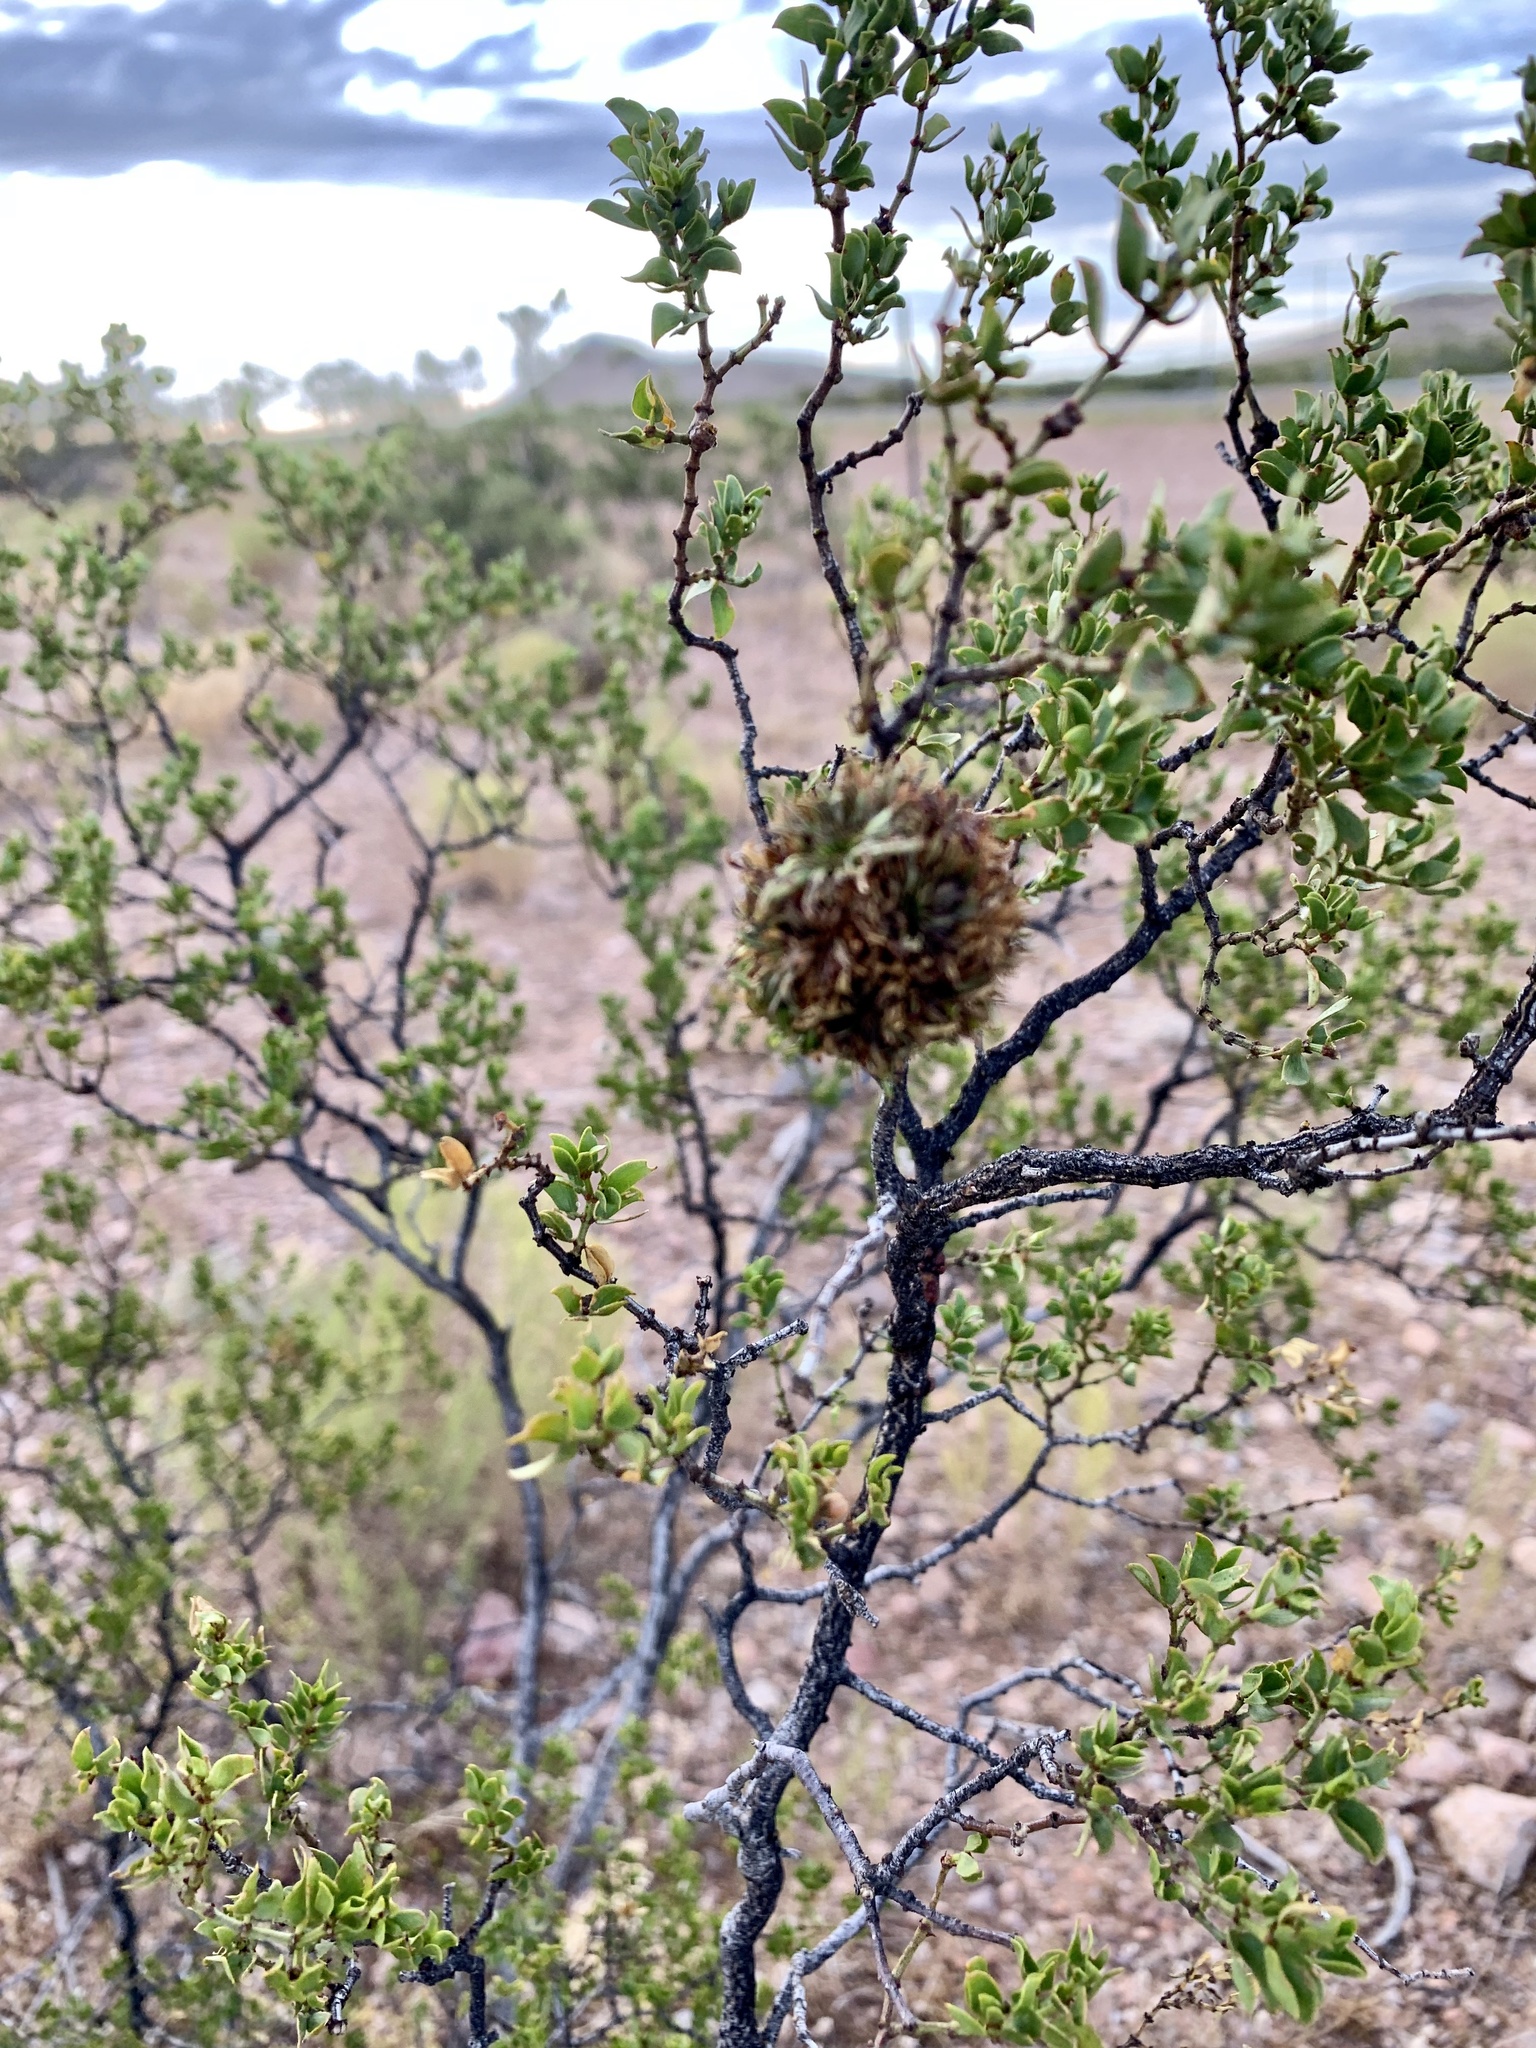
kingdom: Animalia
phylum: Arthropoda
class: Insecta
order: Diptera
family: Cecidomyiidae
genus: Asphondylia
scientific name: Asphondylia auripila
